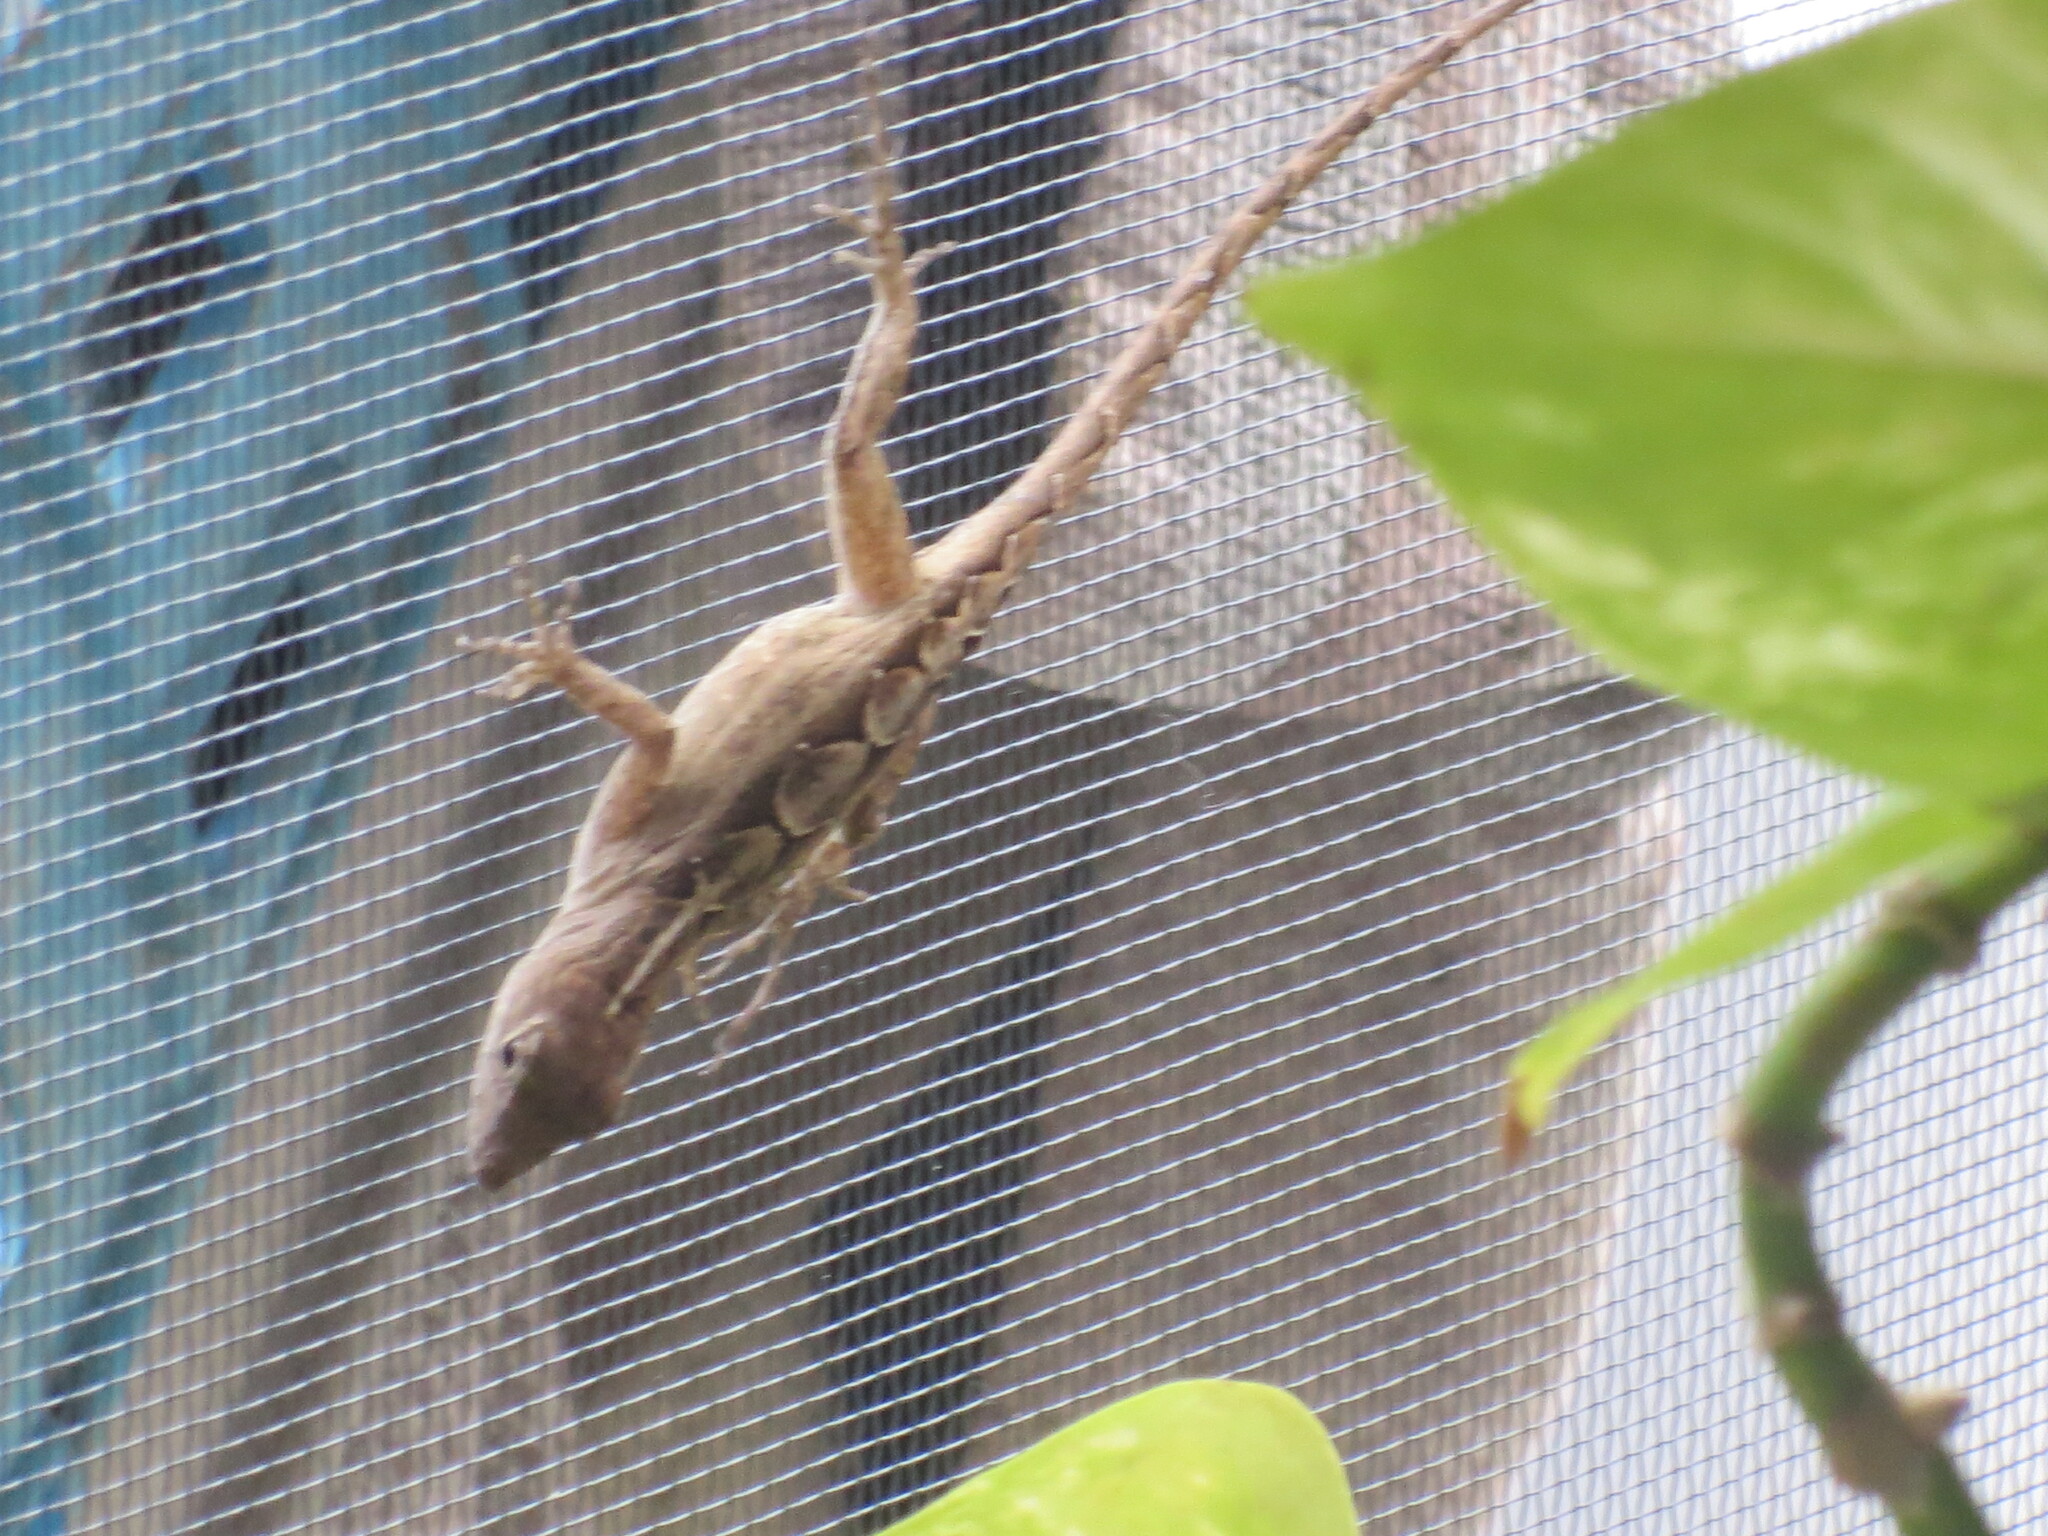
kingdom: Animalia
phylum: Chordata
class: Squamata
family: Dactyloidae
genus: Anolis
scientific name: Anolis sagrei
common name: Brown anole
